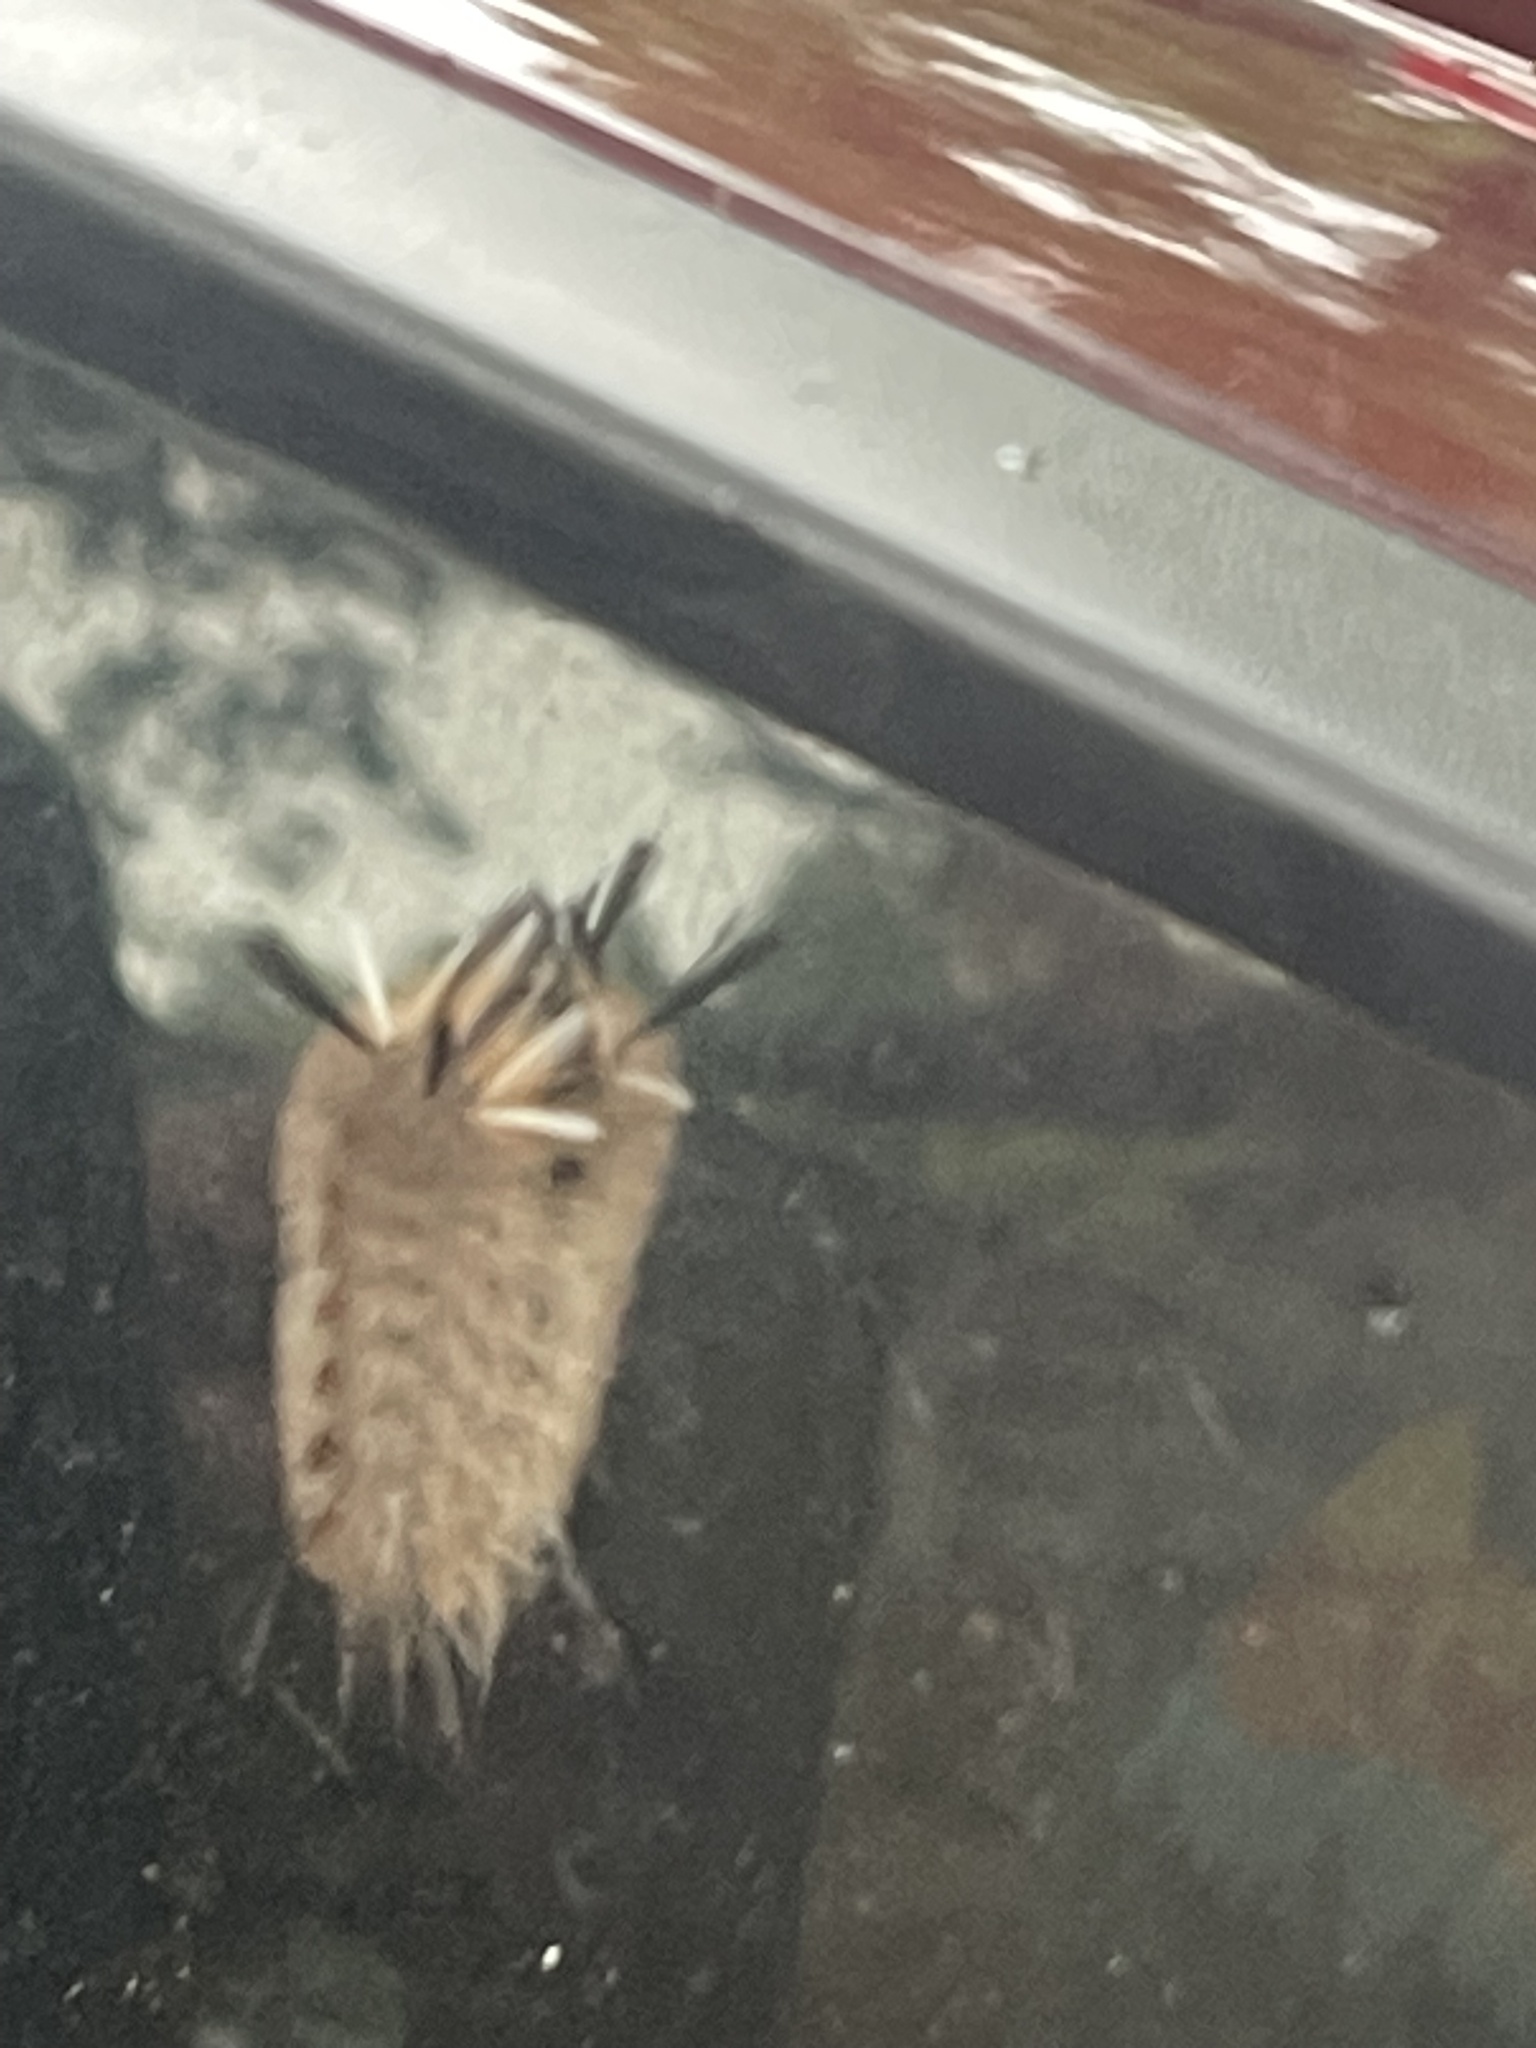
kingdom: Animalia
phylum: Arthropoda
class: Insecta
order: Lepidoptera
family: Erebidae
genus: Halysidota
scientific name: Halysidota tessellaris
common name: Banded tussock moth
